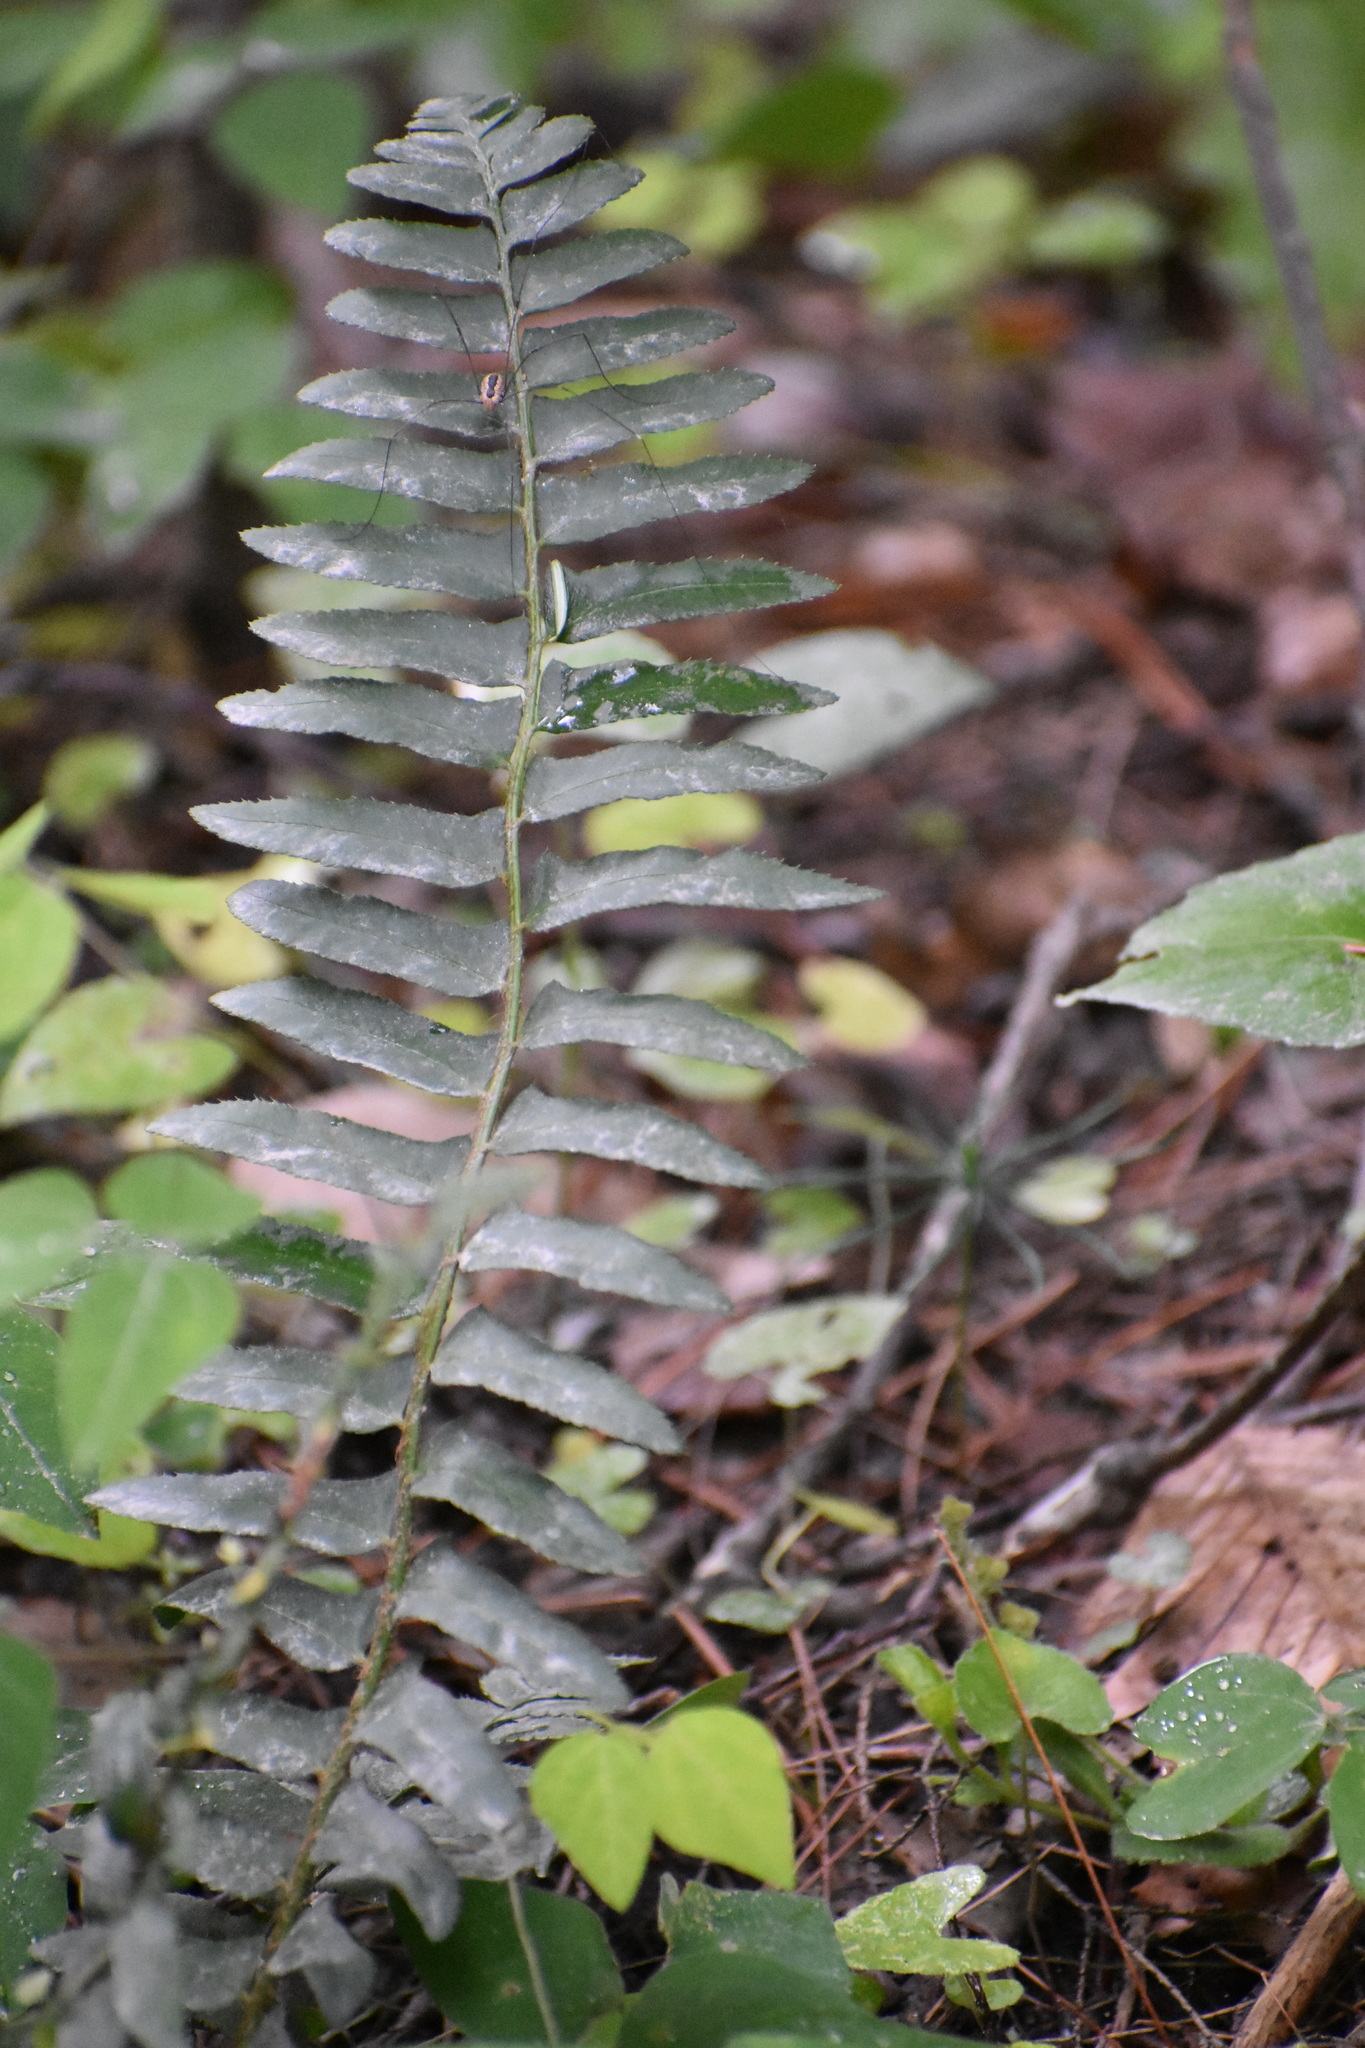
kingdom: Plantae
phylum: Tracheophyta
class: Polypodiopsida
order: Polypodiales
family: Dryopteridaceae
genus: Polystichum
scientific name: Polystichum acrostichoides
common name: Christmas fern
